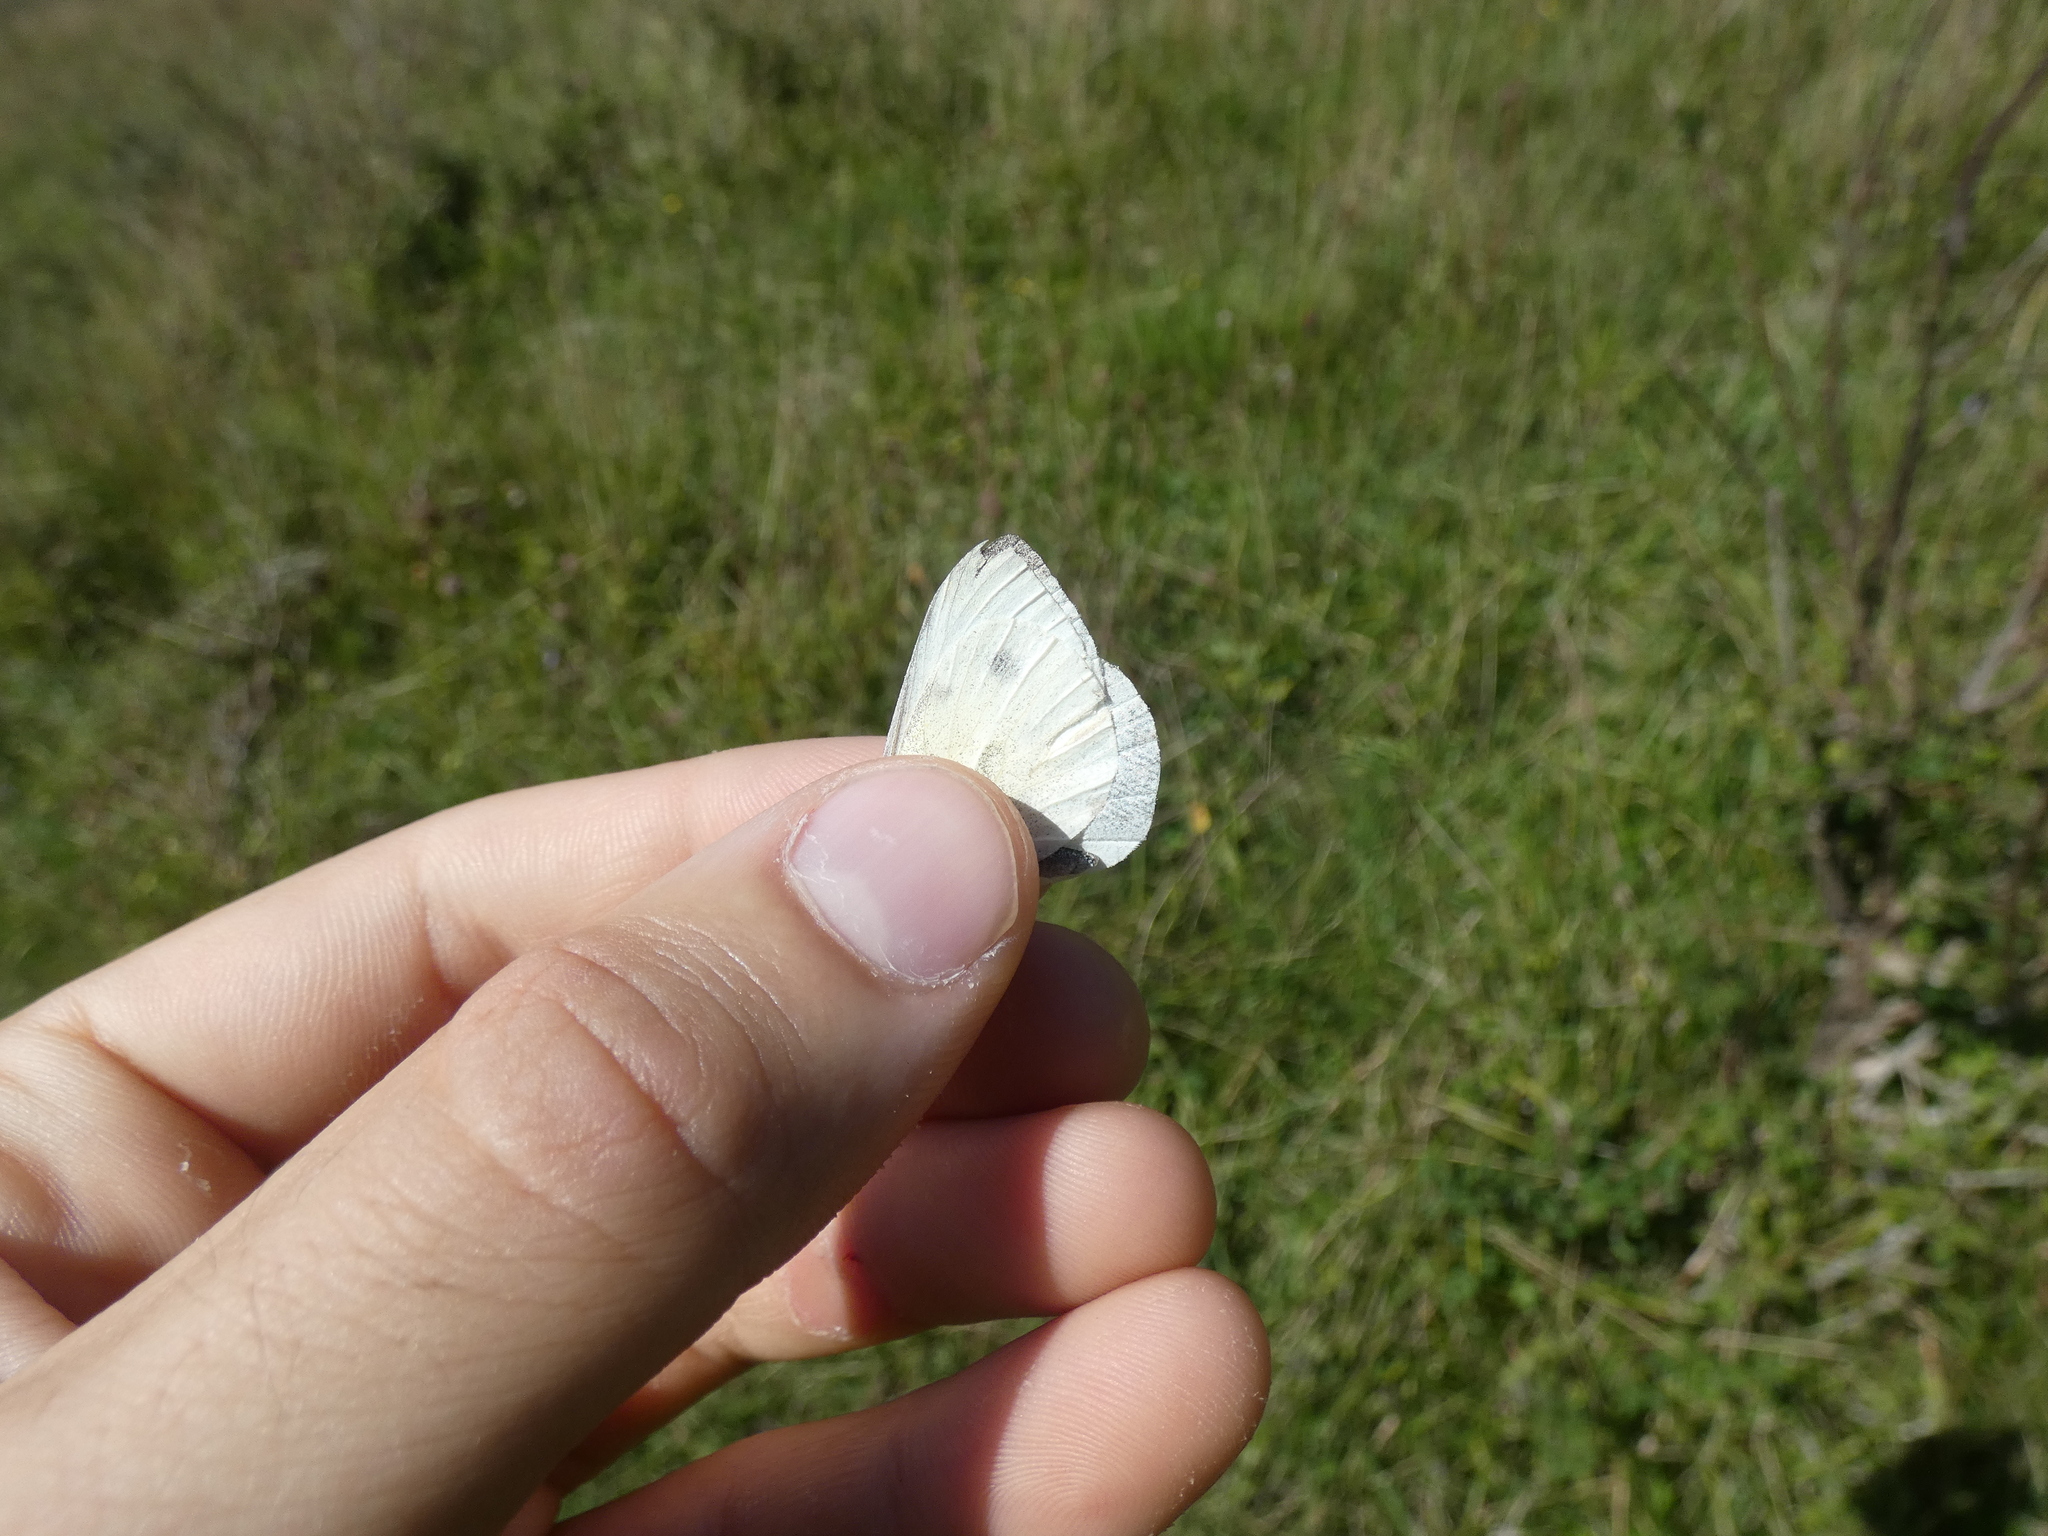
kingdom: Animalia
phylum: Arthropoda
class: Insecta
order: Lepidoptera
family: Pieridae
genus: Pieris
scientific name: Pieris rapae
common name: Small white
